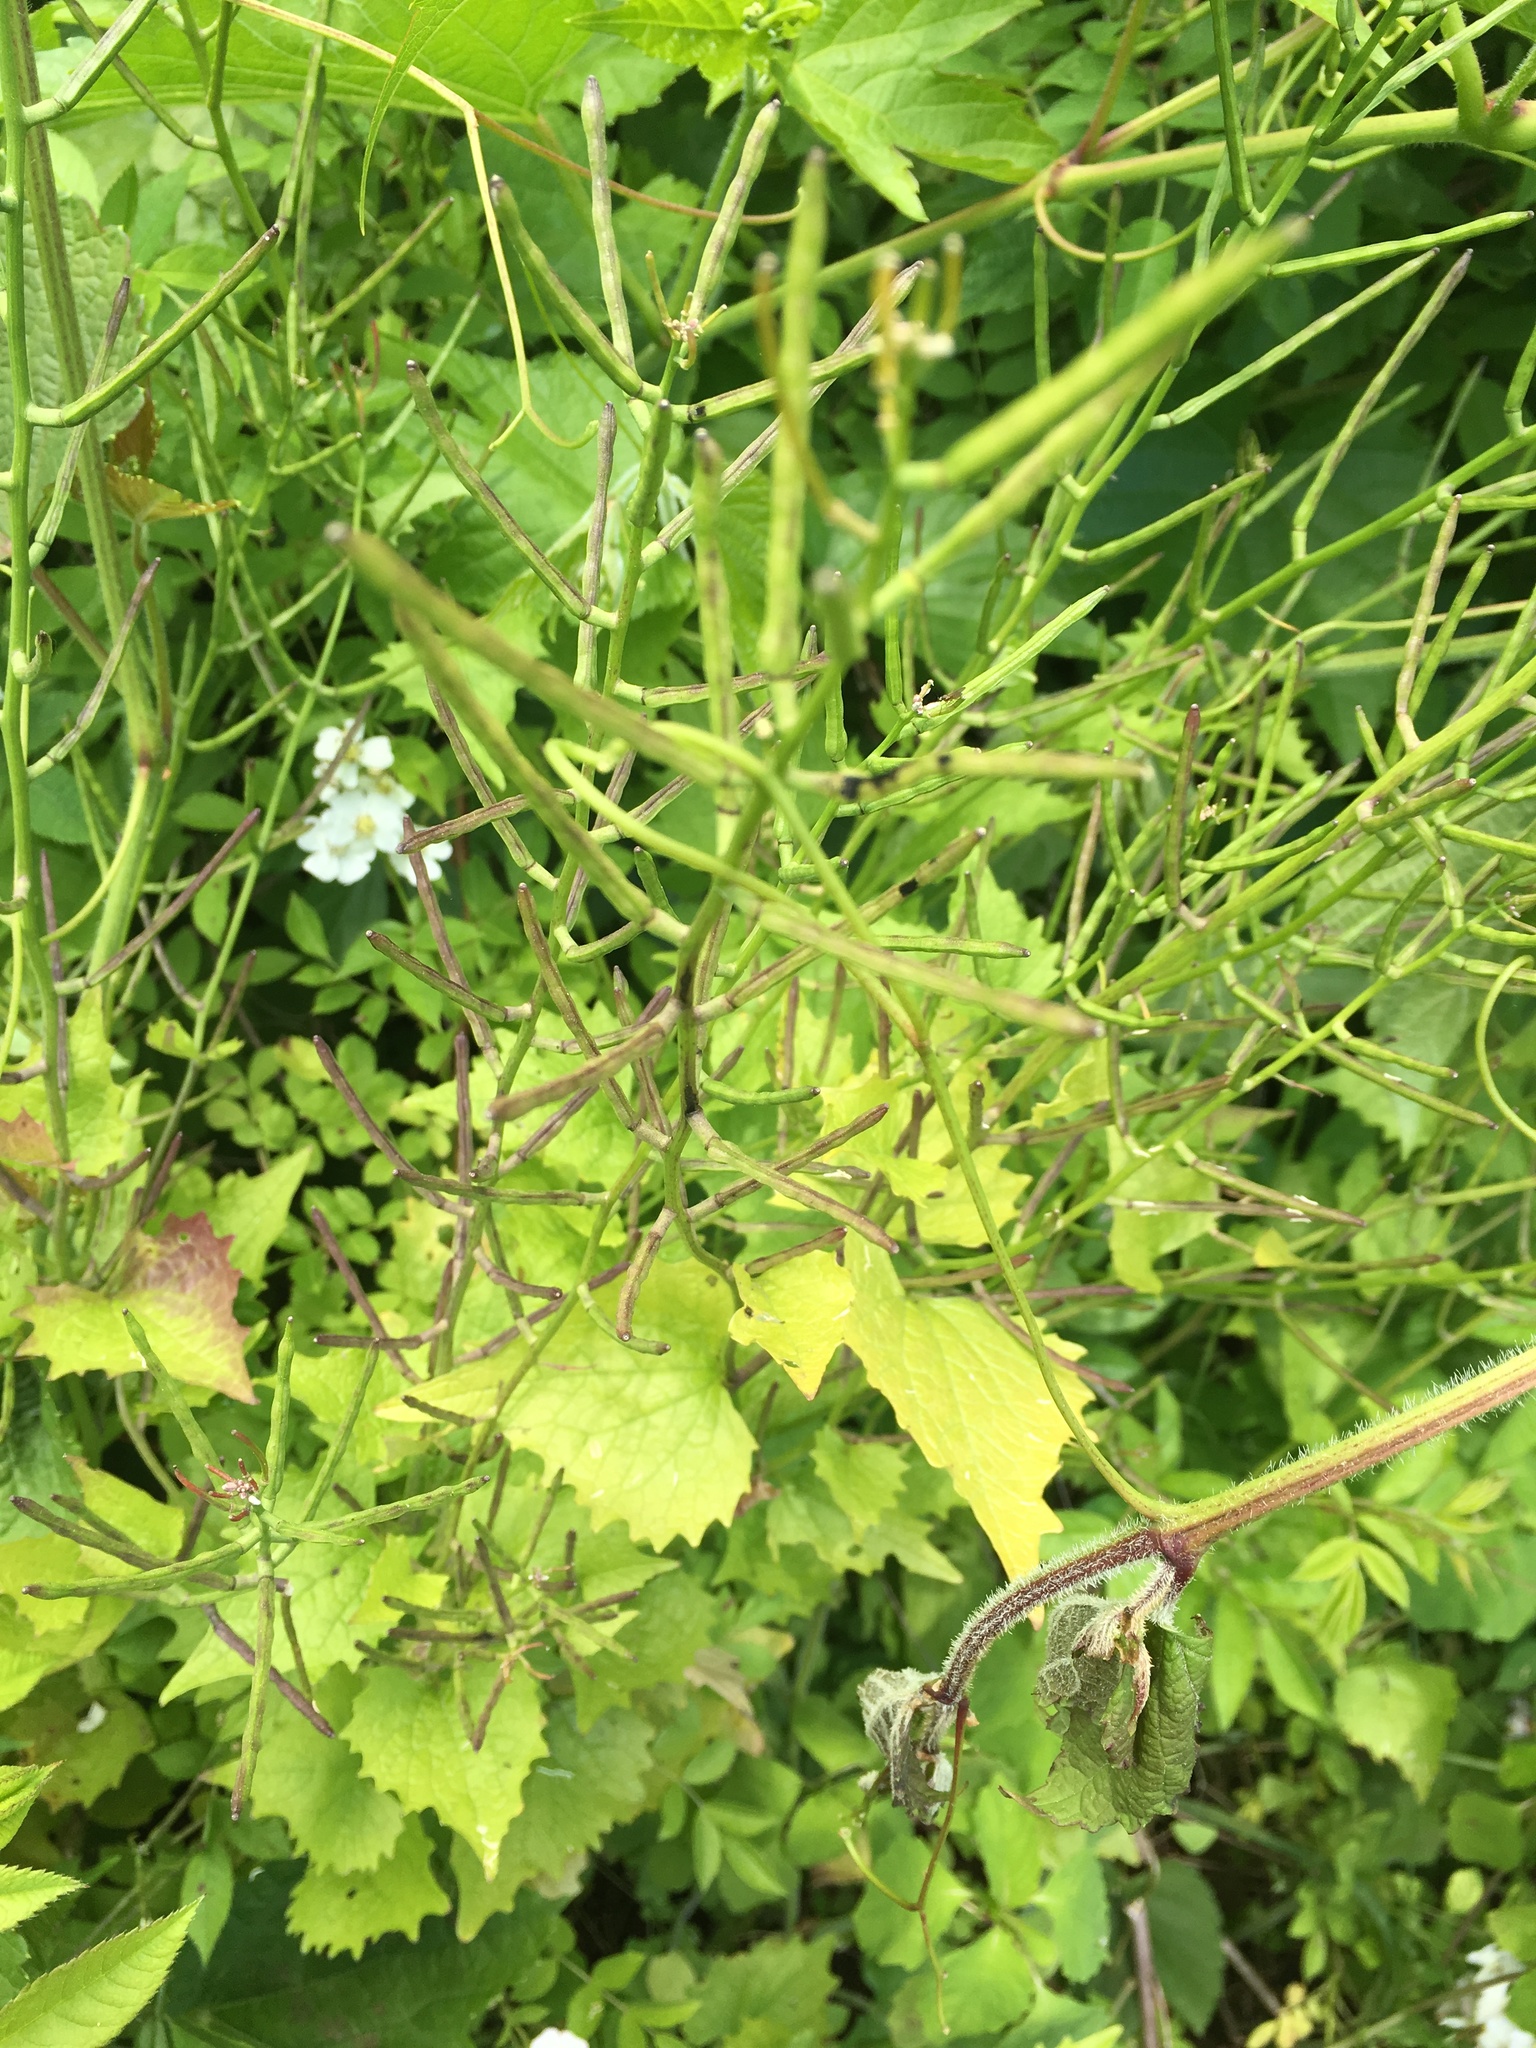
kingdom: Plantae
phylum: Tracheophyta
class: Magnoliopsida
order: Brassicales
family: Brassicaceae
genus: Alliaria
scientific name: Alliaria petiolata
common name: Garlic mustard
